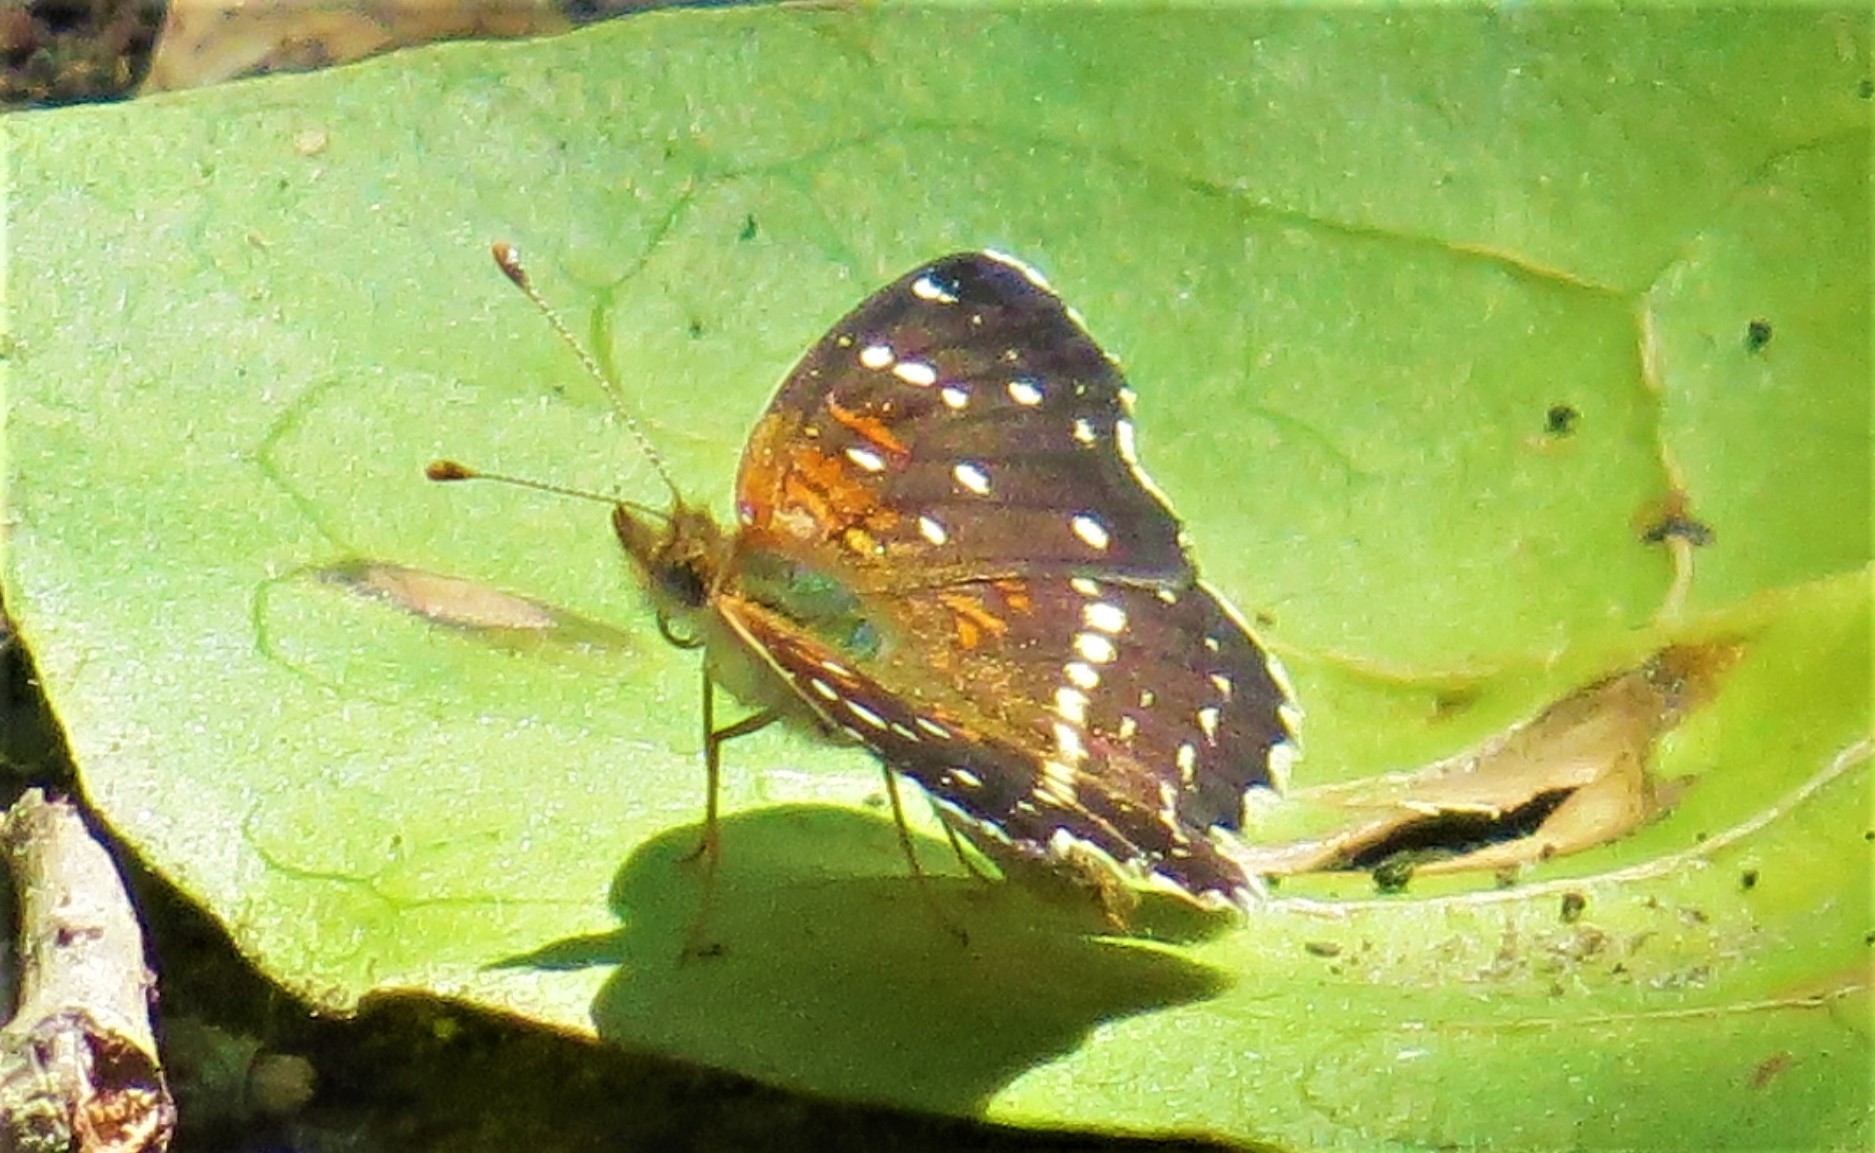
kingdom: Animalia
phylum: Arthropoda
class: Insecta
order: Lepidoptera
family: Nymphalidae
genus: Anthanassa
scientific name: Anthanassa texana
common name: Texan crescent
